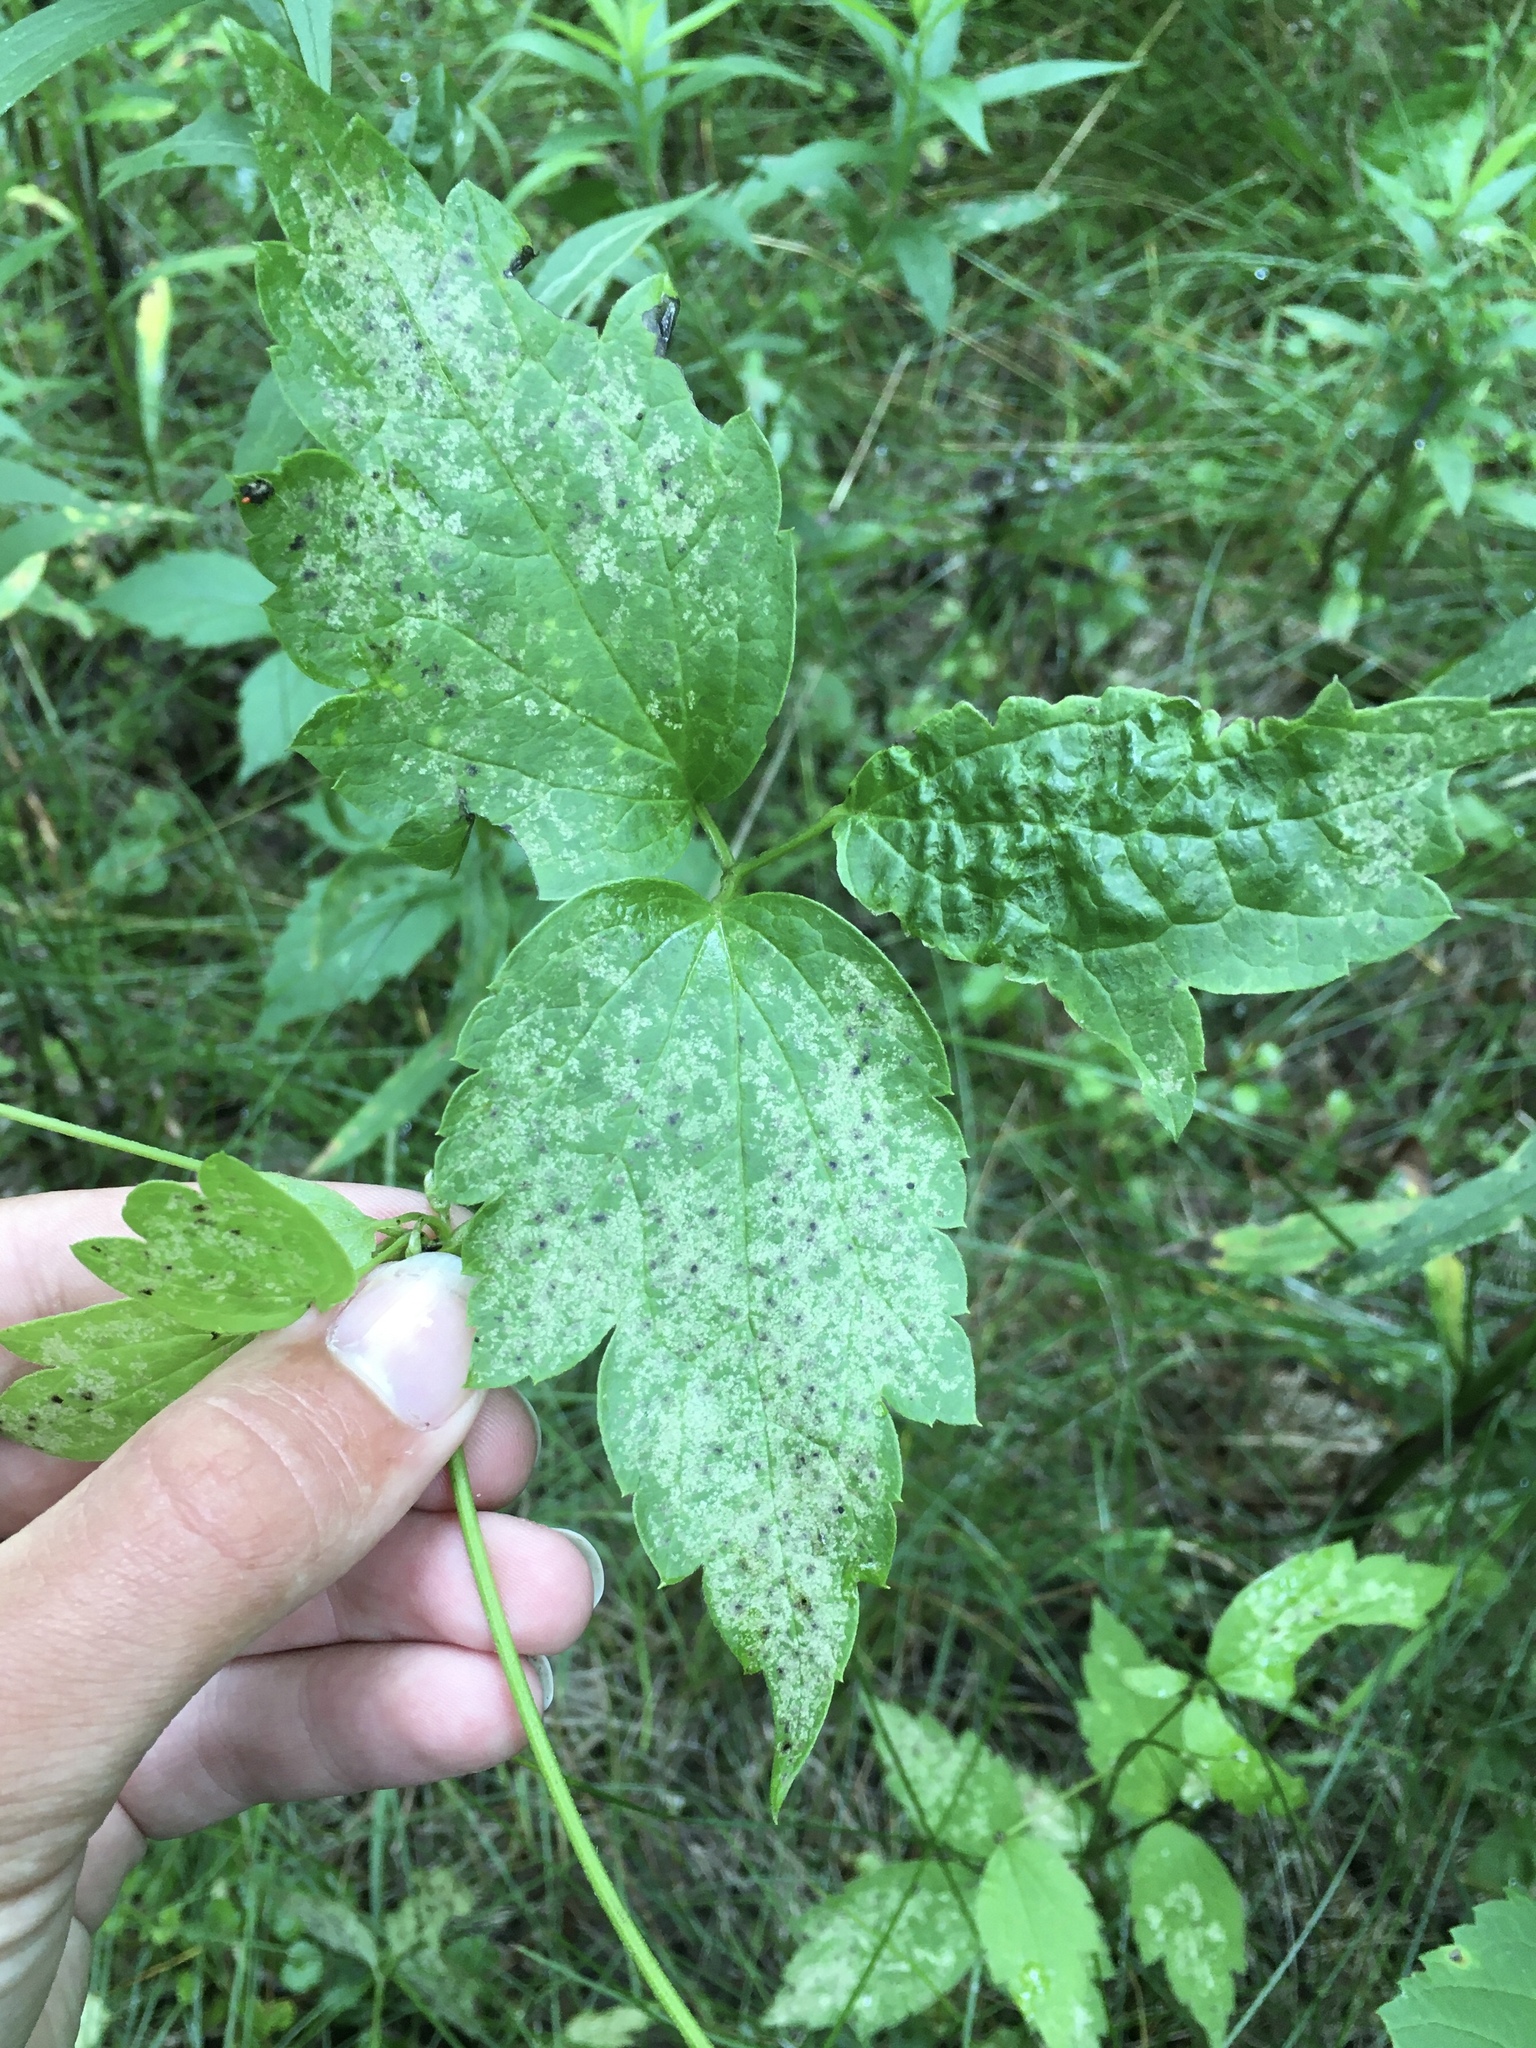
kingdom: Animalia
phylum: Arthropoda
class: Insecta
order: Hemiptera
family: Miridae
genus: Microtechnites
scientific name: Microtechnites bractatus
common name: Garden fleahopper
